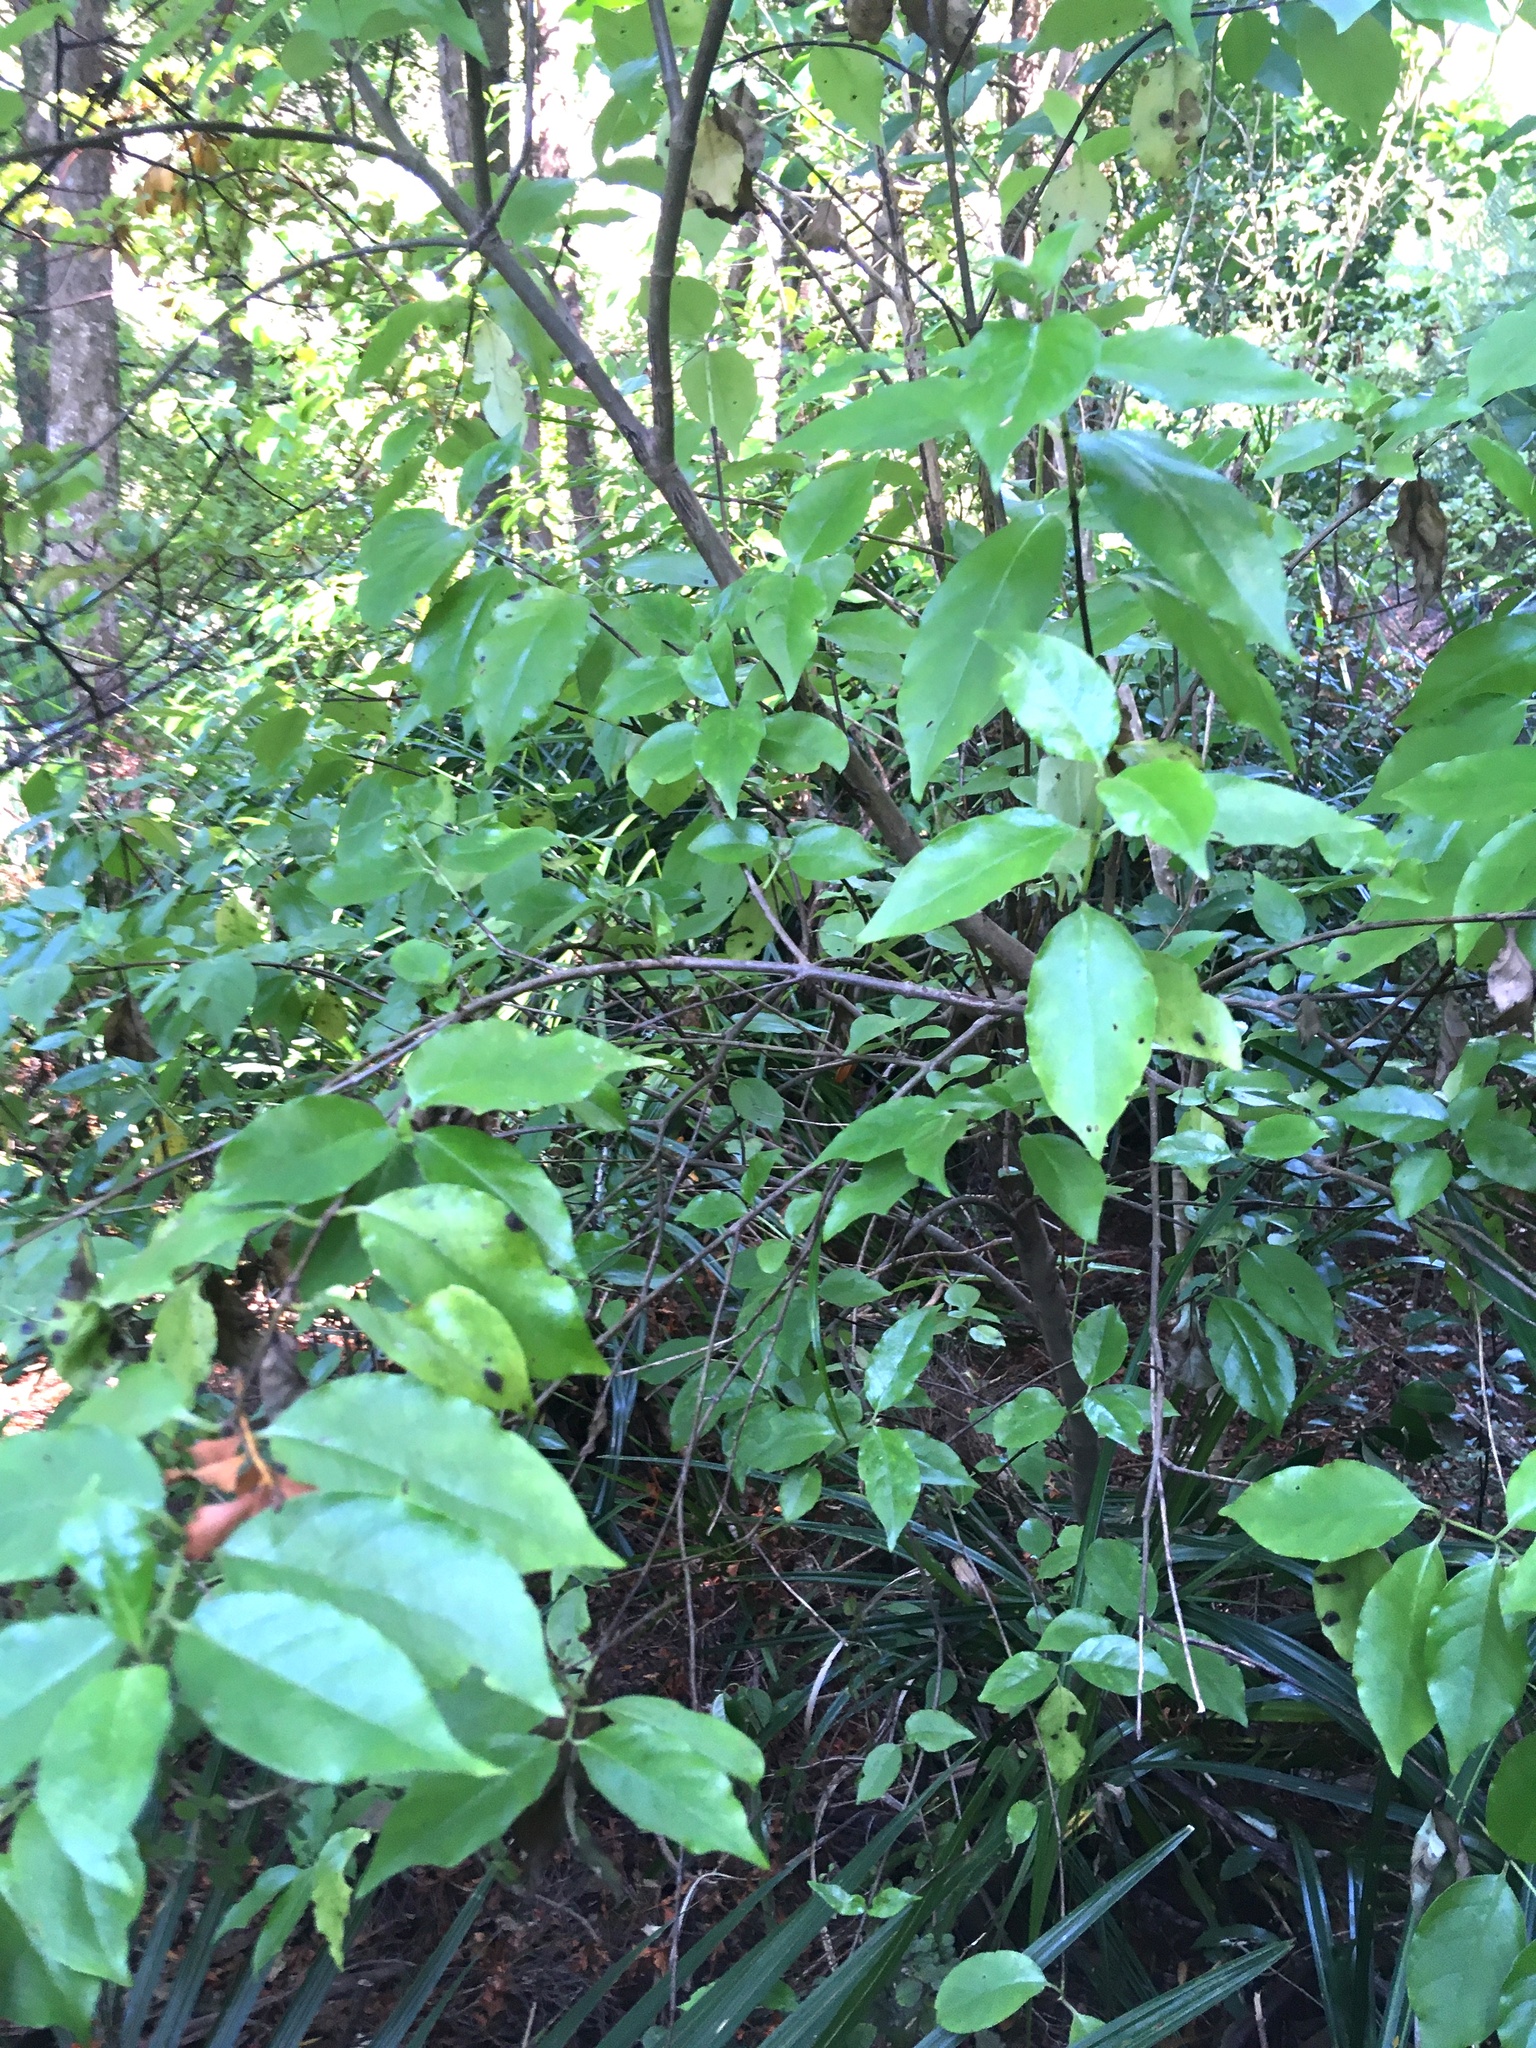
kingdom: Plantae
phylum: Tracheophyta
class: Magnoliopsida
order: Gentianales
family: Loganiaceae
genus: Geniostoma
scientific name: Geniostoma ligustrifolium
